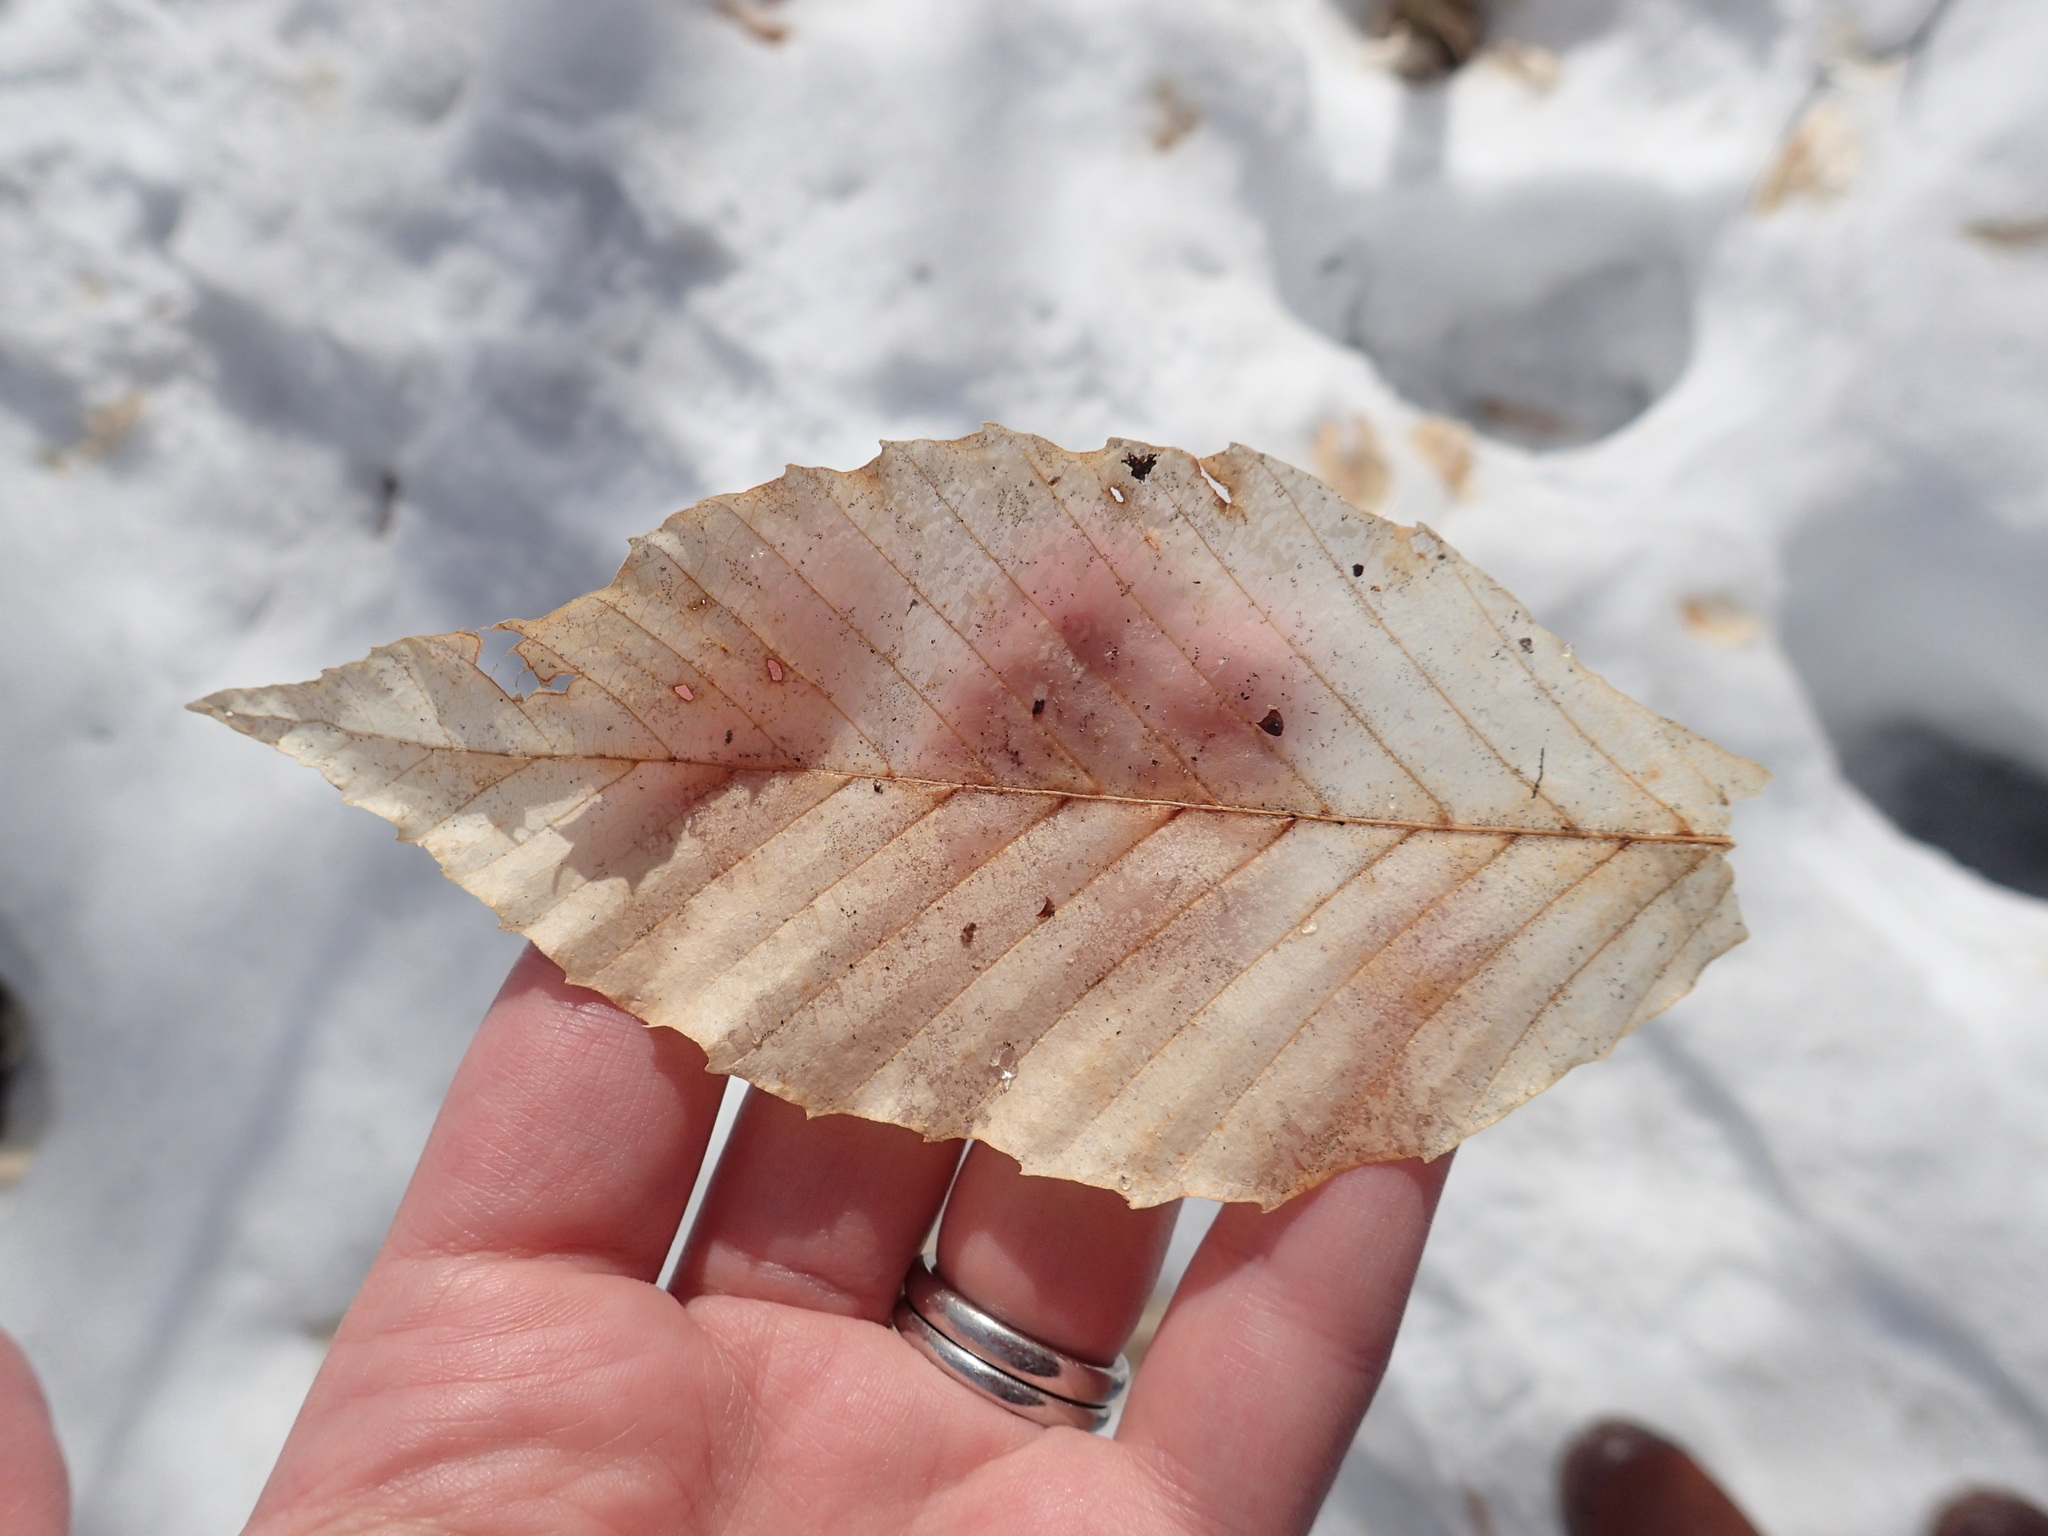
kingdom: Plantae
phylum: Tracheophyta
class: Magnoliopsida
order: Fagales
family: Fagaceae
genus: Fagus
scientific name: Fagus grandifolia
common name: American beech
